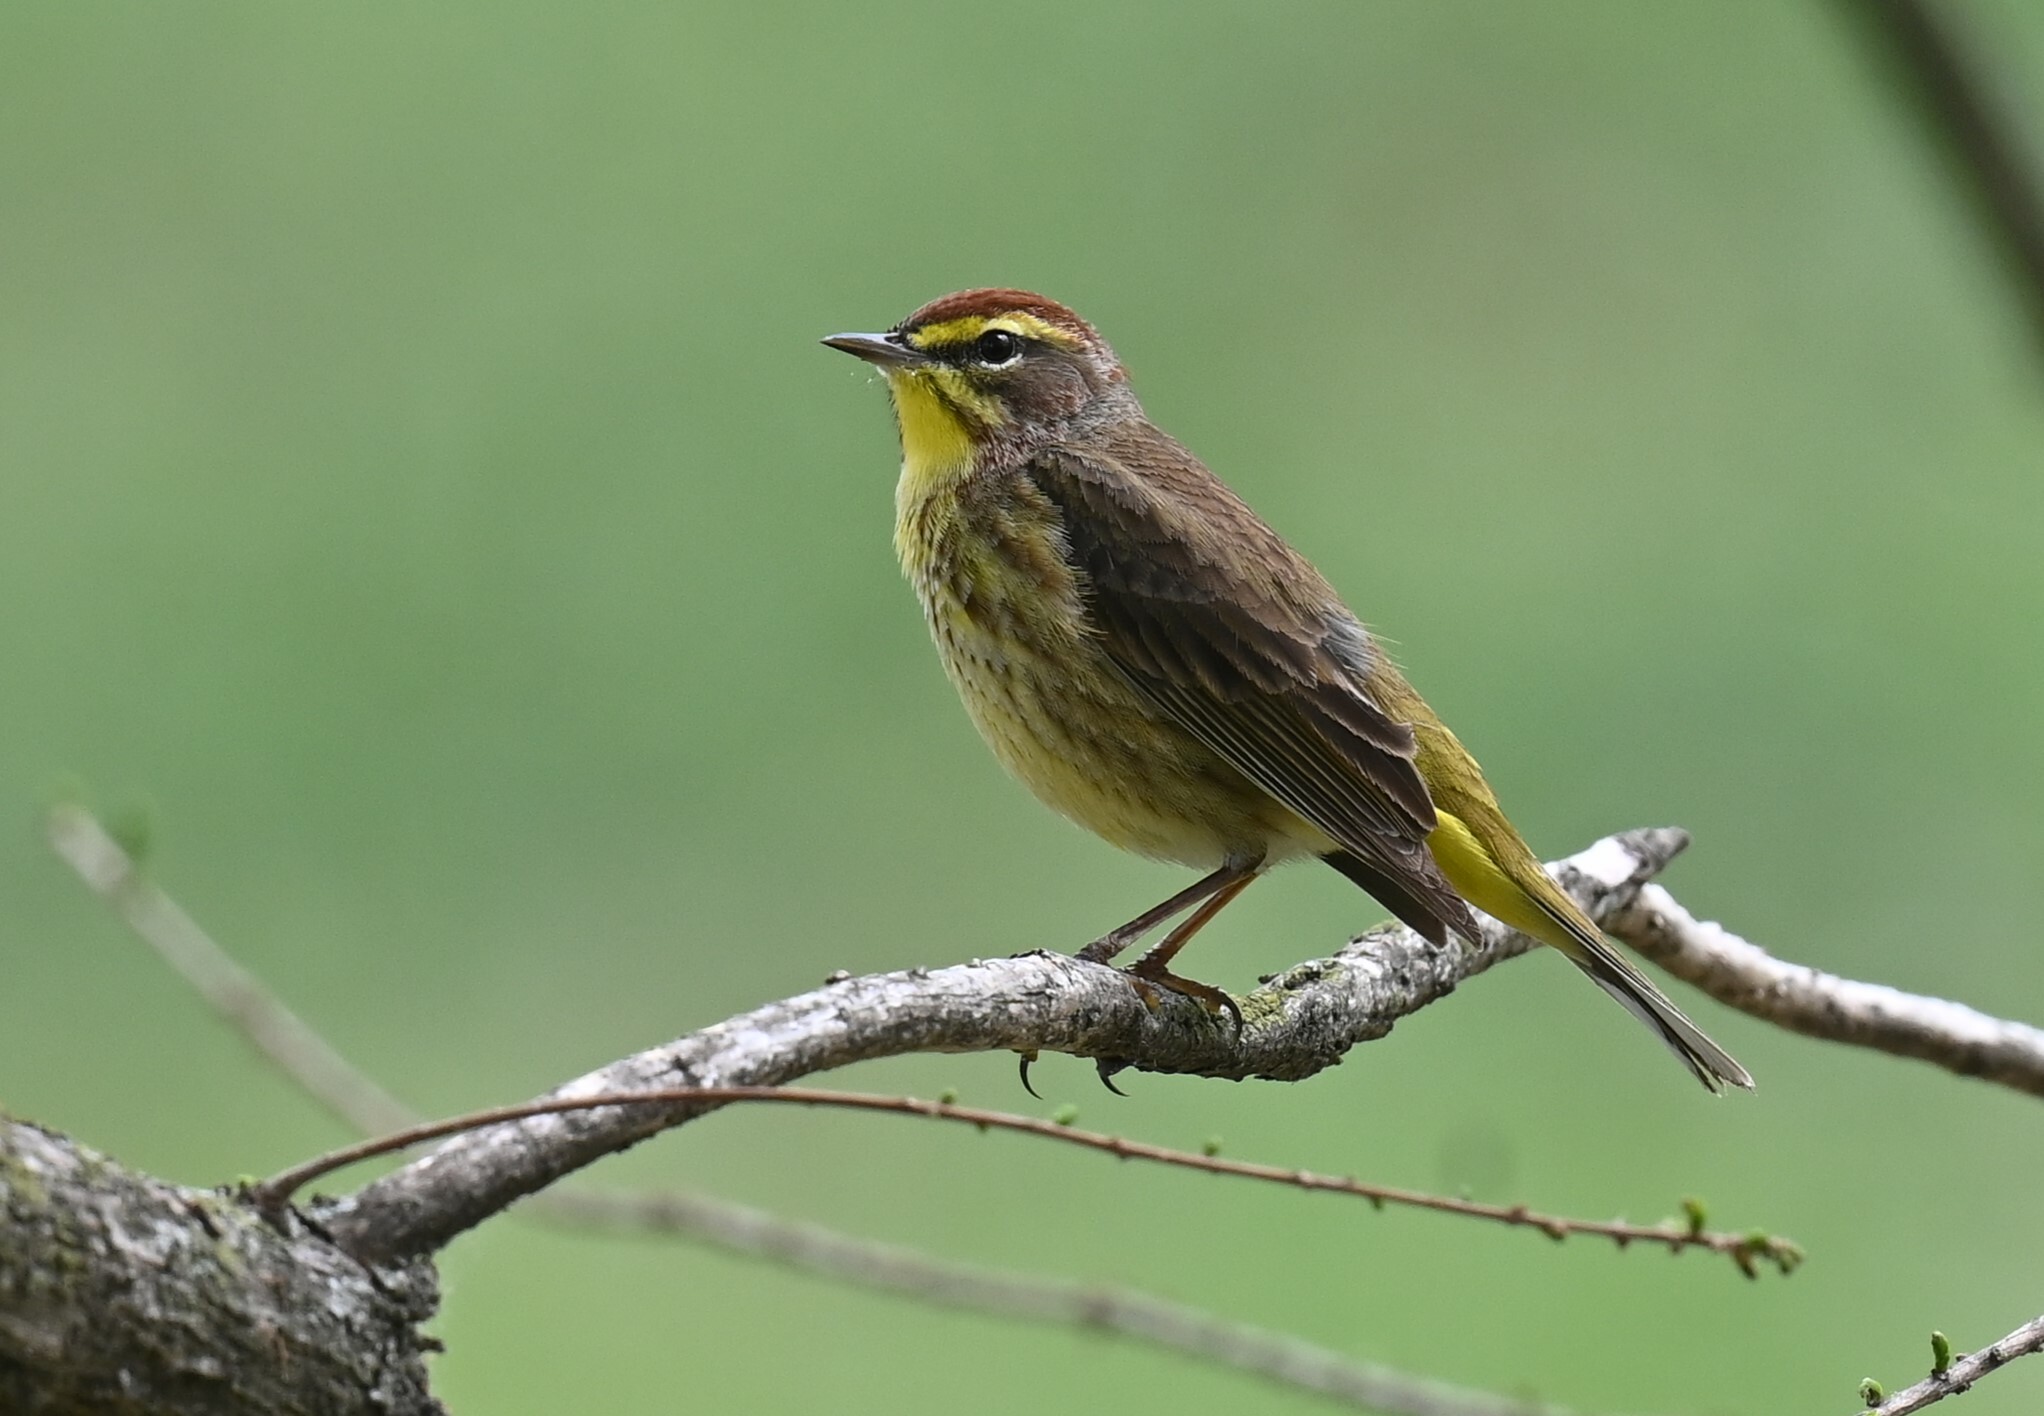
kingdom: Animalia
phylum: Chordata
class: Aves
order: Passeriformes
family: Parulidae
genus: Setophaga
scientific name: Setophaga palmarum
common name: Palm warbler
